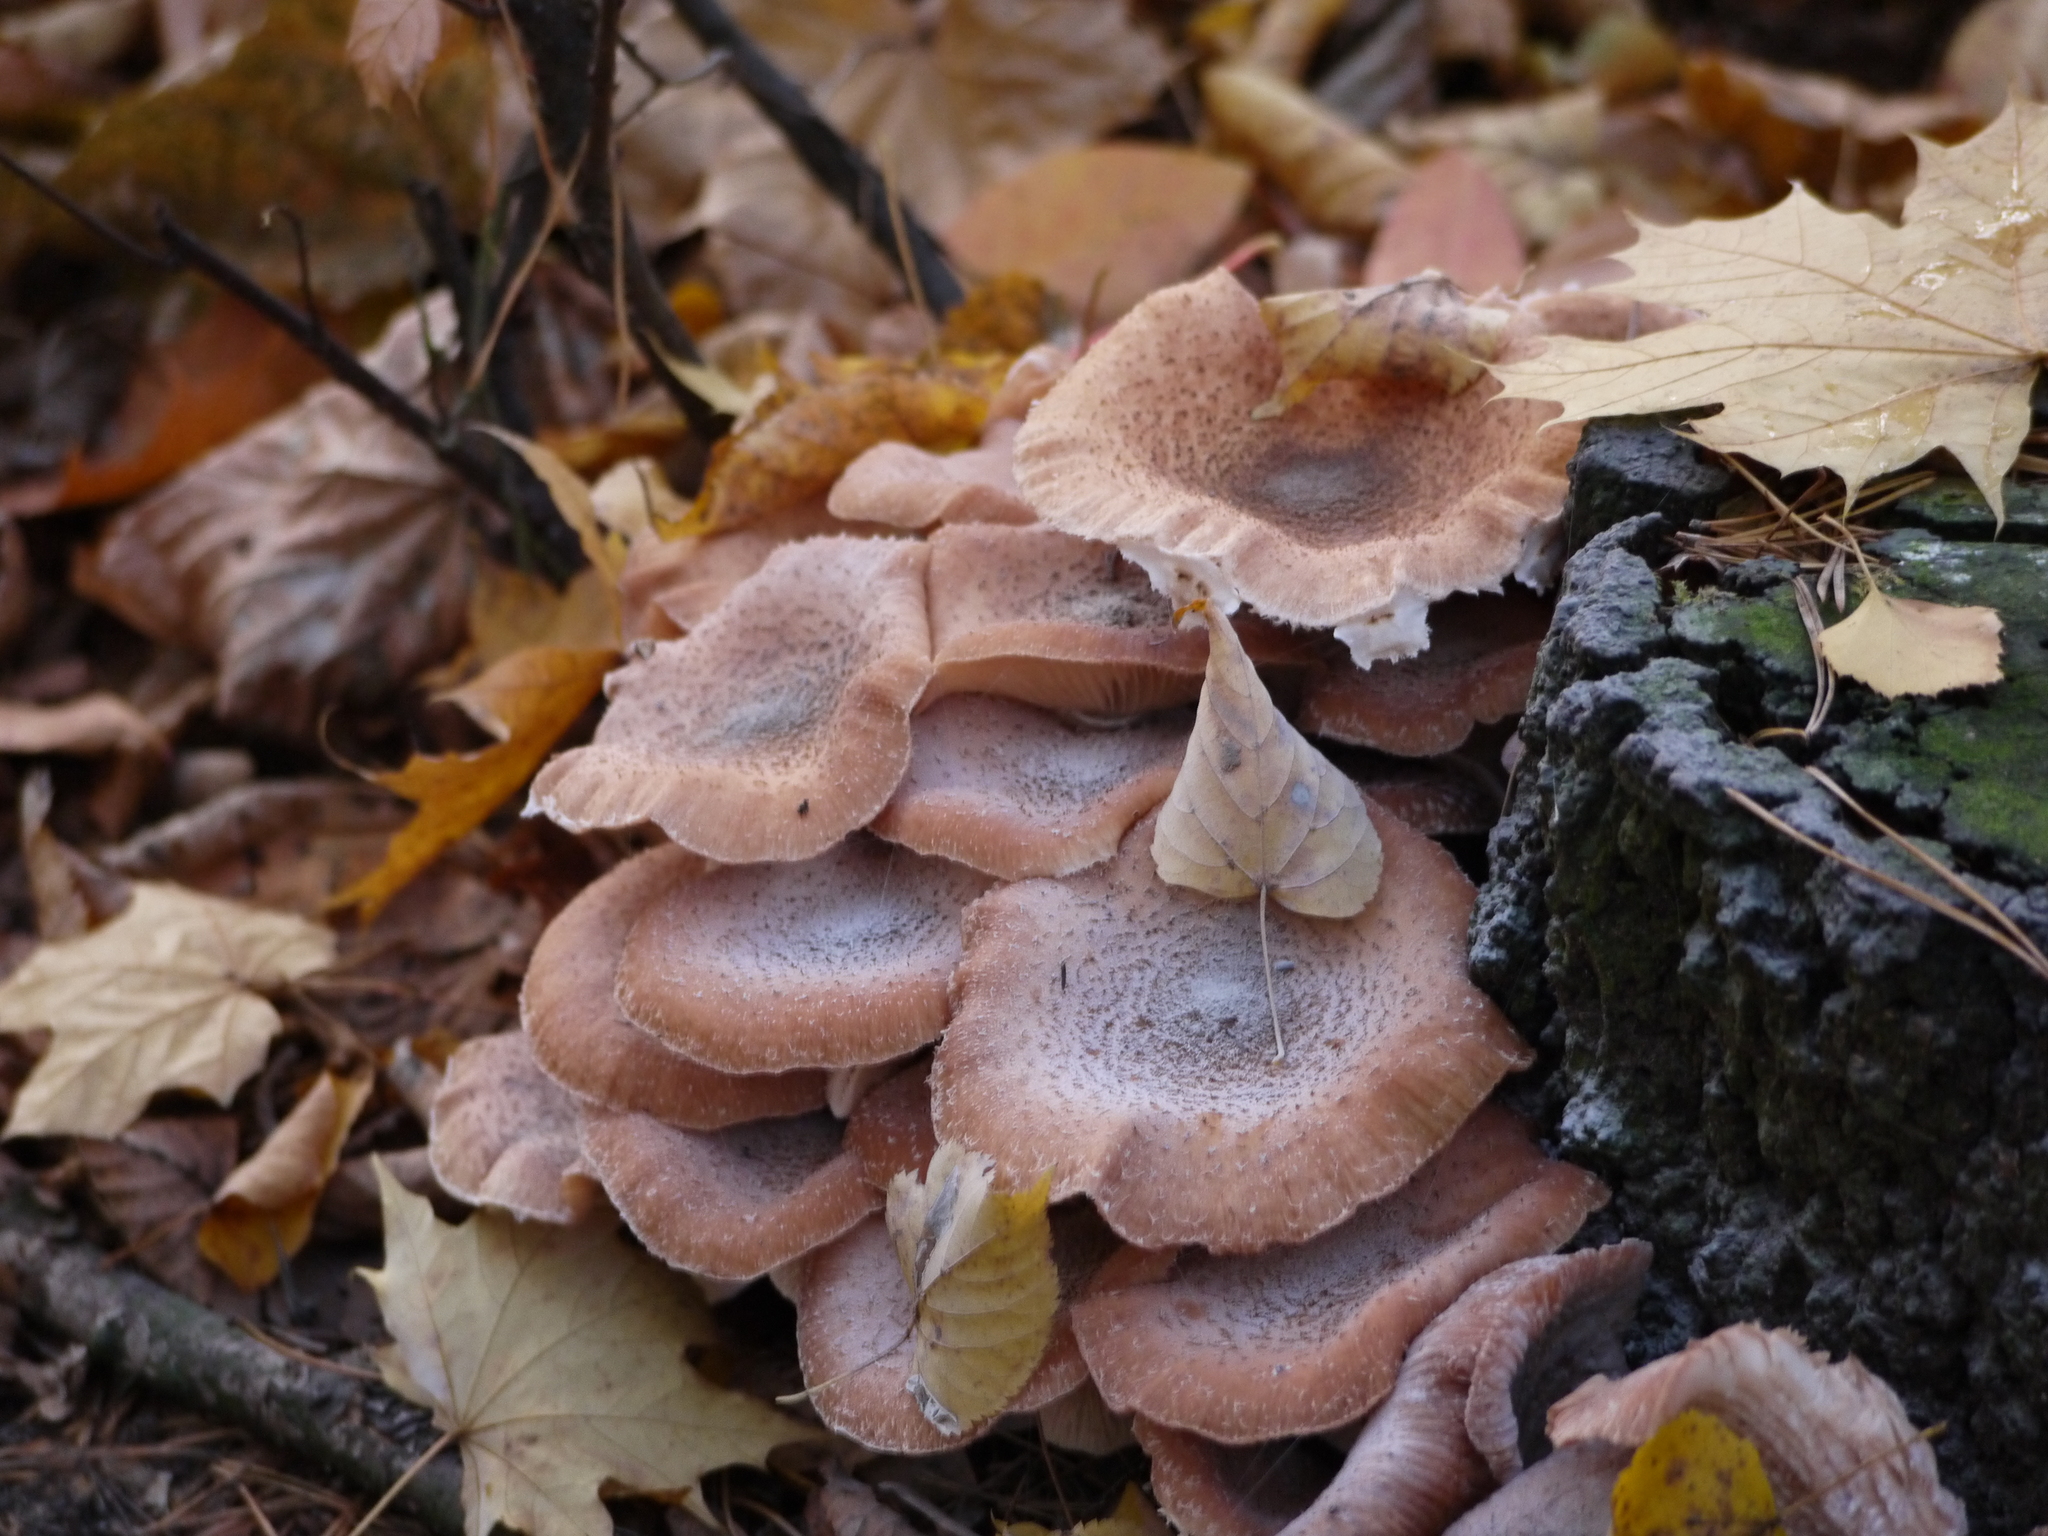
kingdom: Fungi
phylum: Basidiomycota
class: Agaricomycetes
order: Agaricales
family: Physalacriaceae
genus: Armillaria
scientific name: Armillaria mellea
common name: Honey fungus
